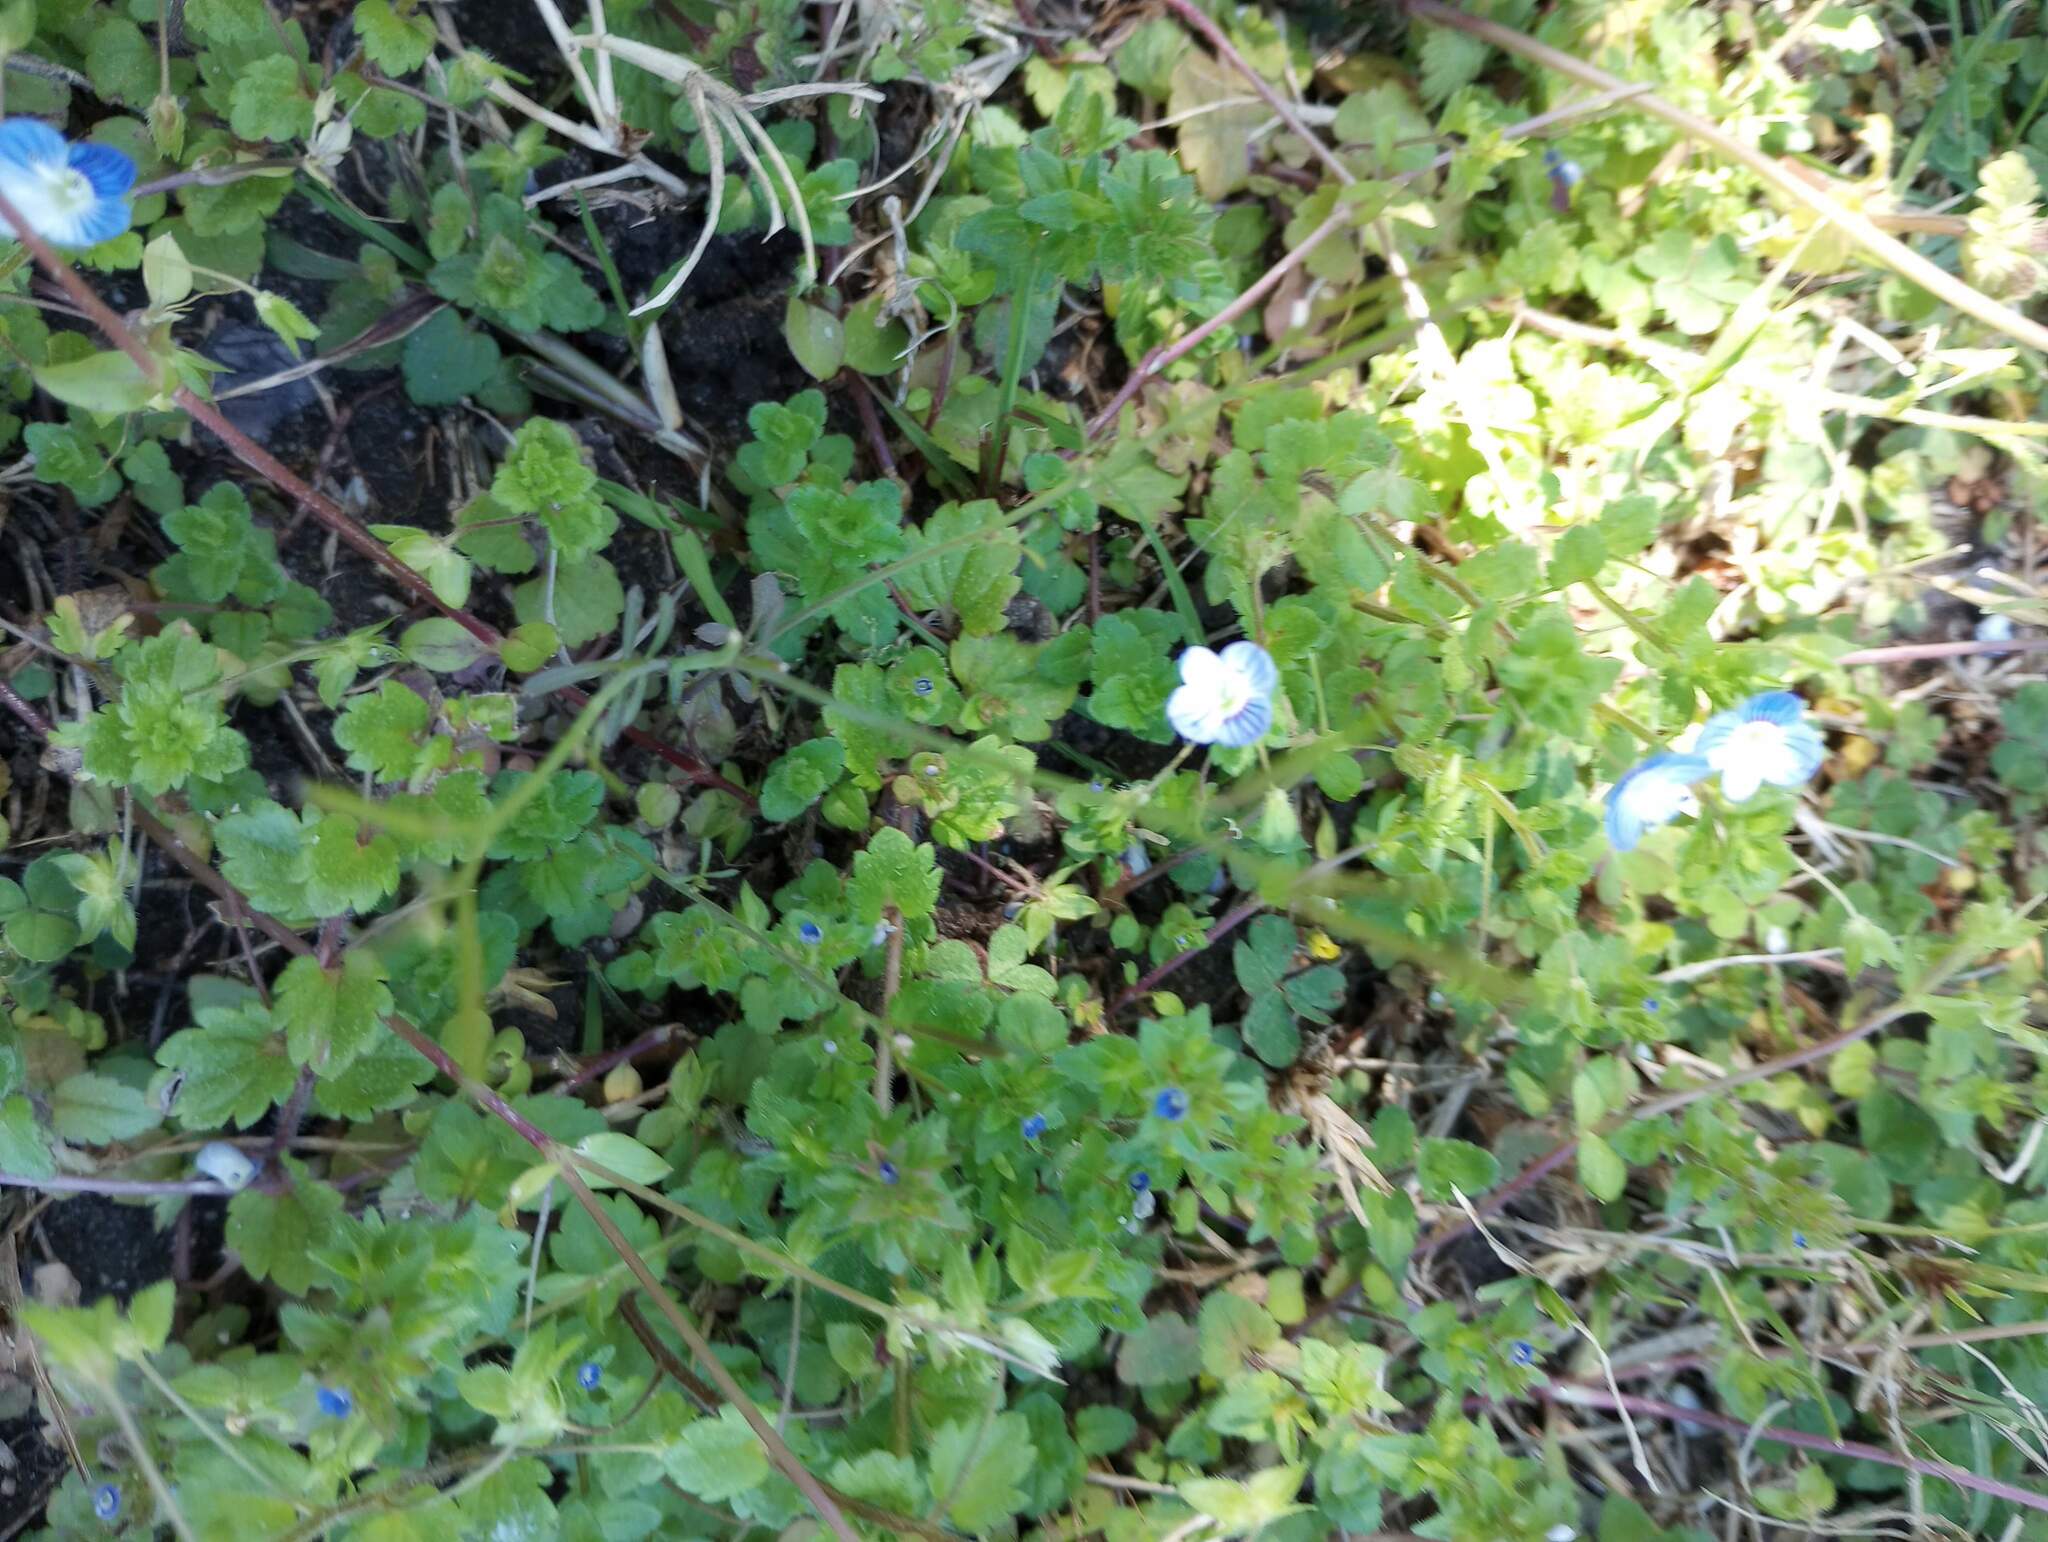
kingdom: Plantae
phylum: Tracheophyta
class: Magnoliopsida
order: Lamiales
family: Plantaginaceae
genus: Veronica
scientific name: Veronica arvensis
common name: Corn speedwell
